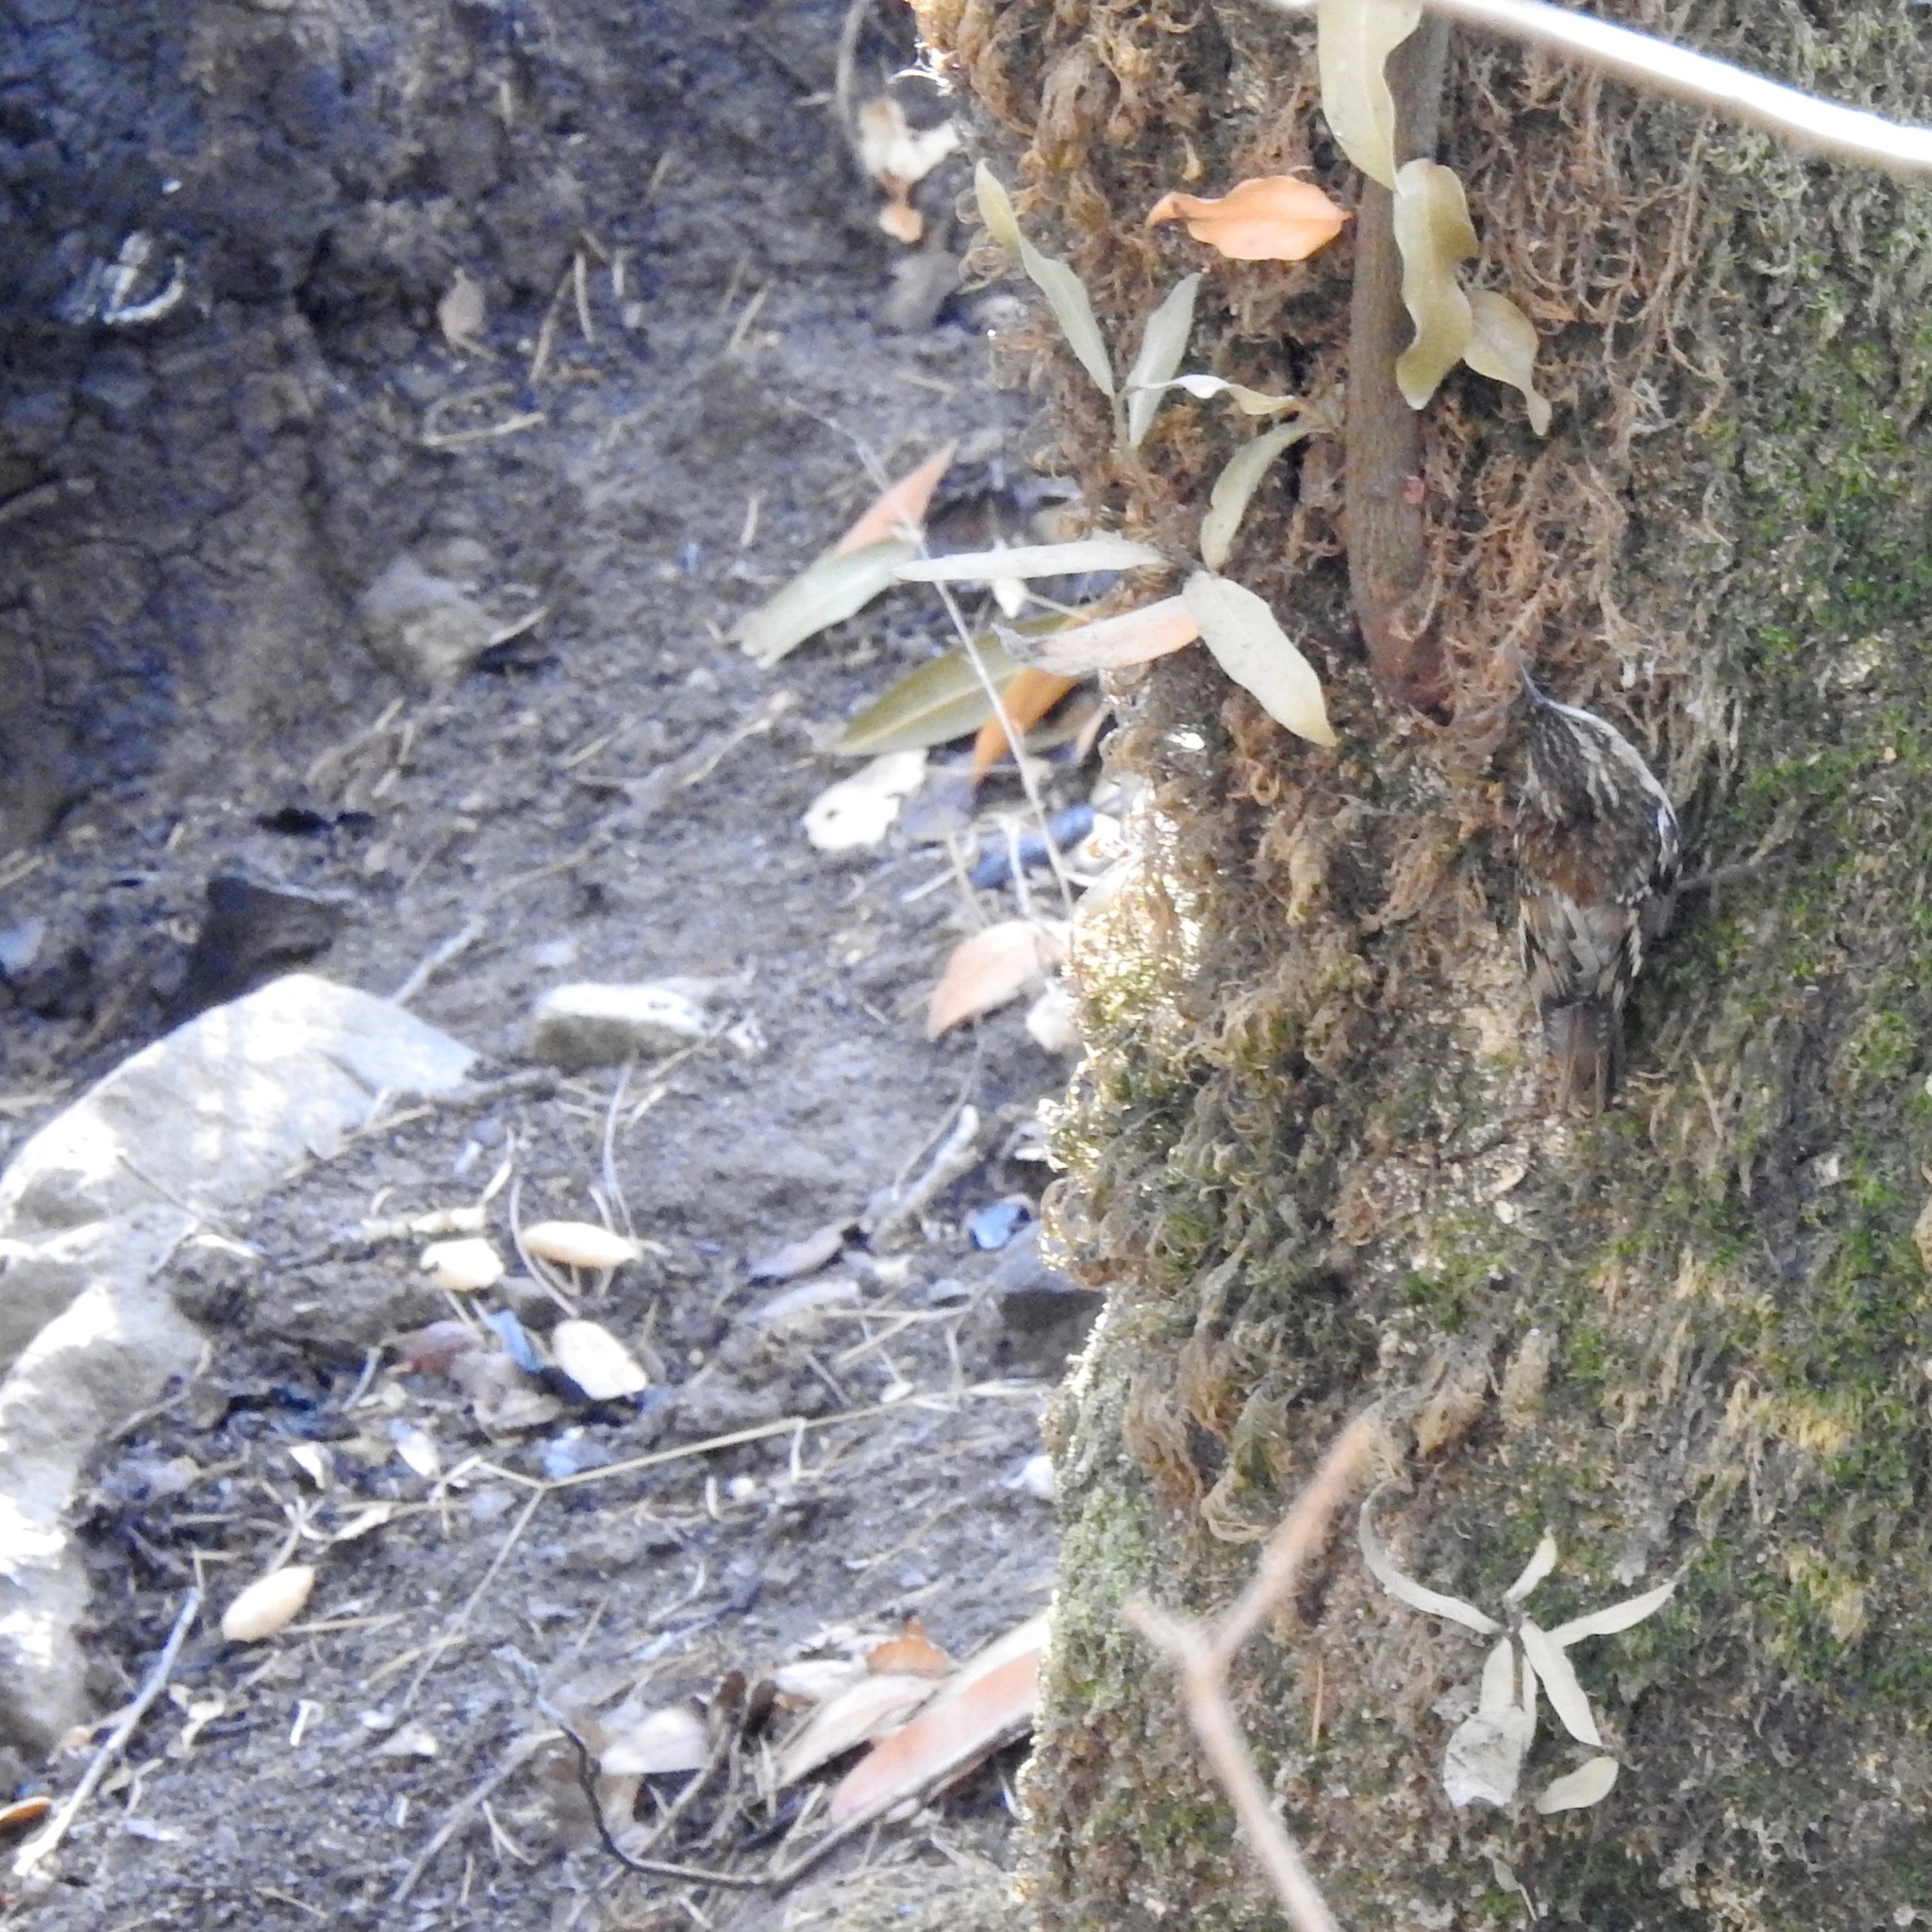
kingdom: Animalia
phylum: Chordata
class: Aves
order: Passeriformes
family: Certhiidae
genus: Certhia
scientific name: Certhia americana
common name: Brown creeper
